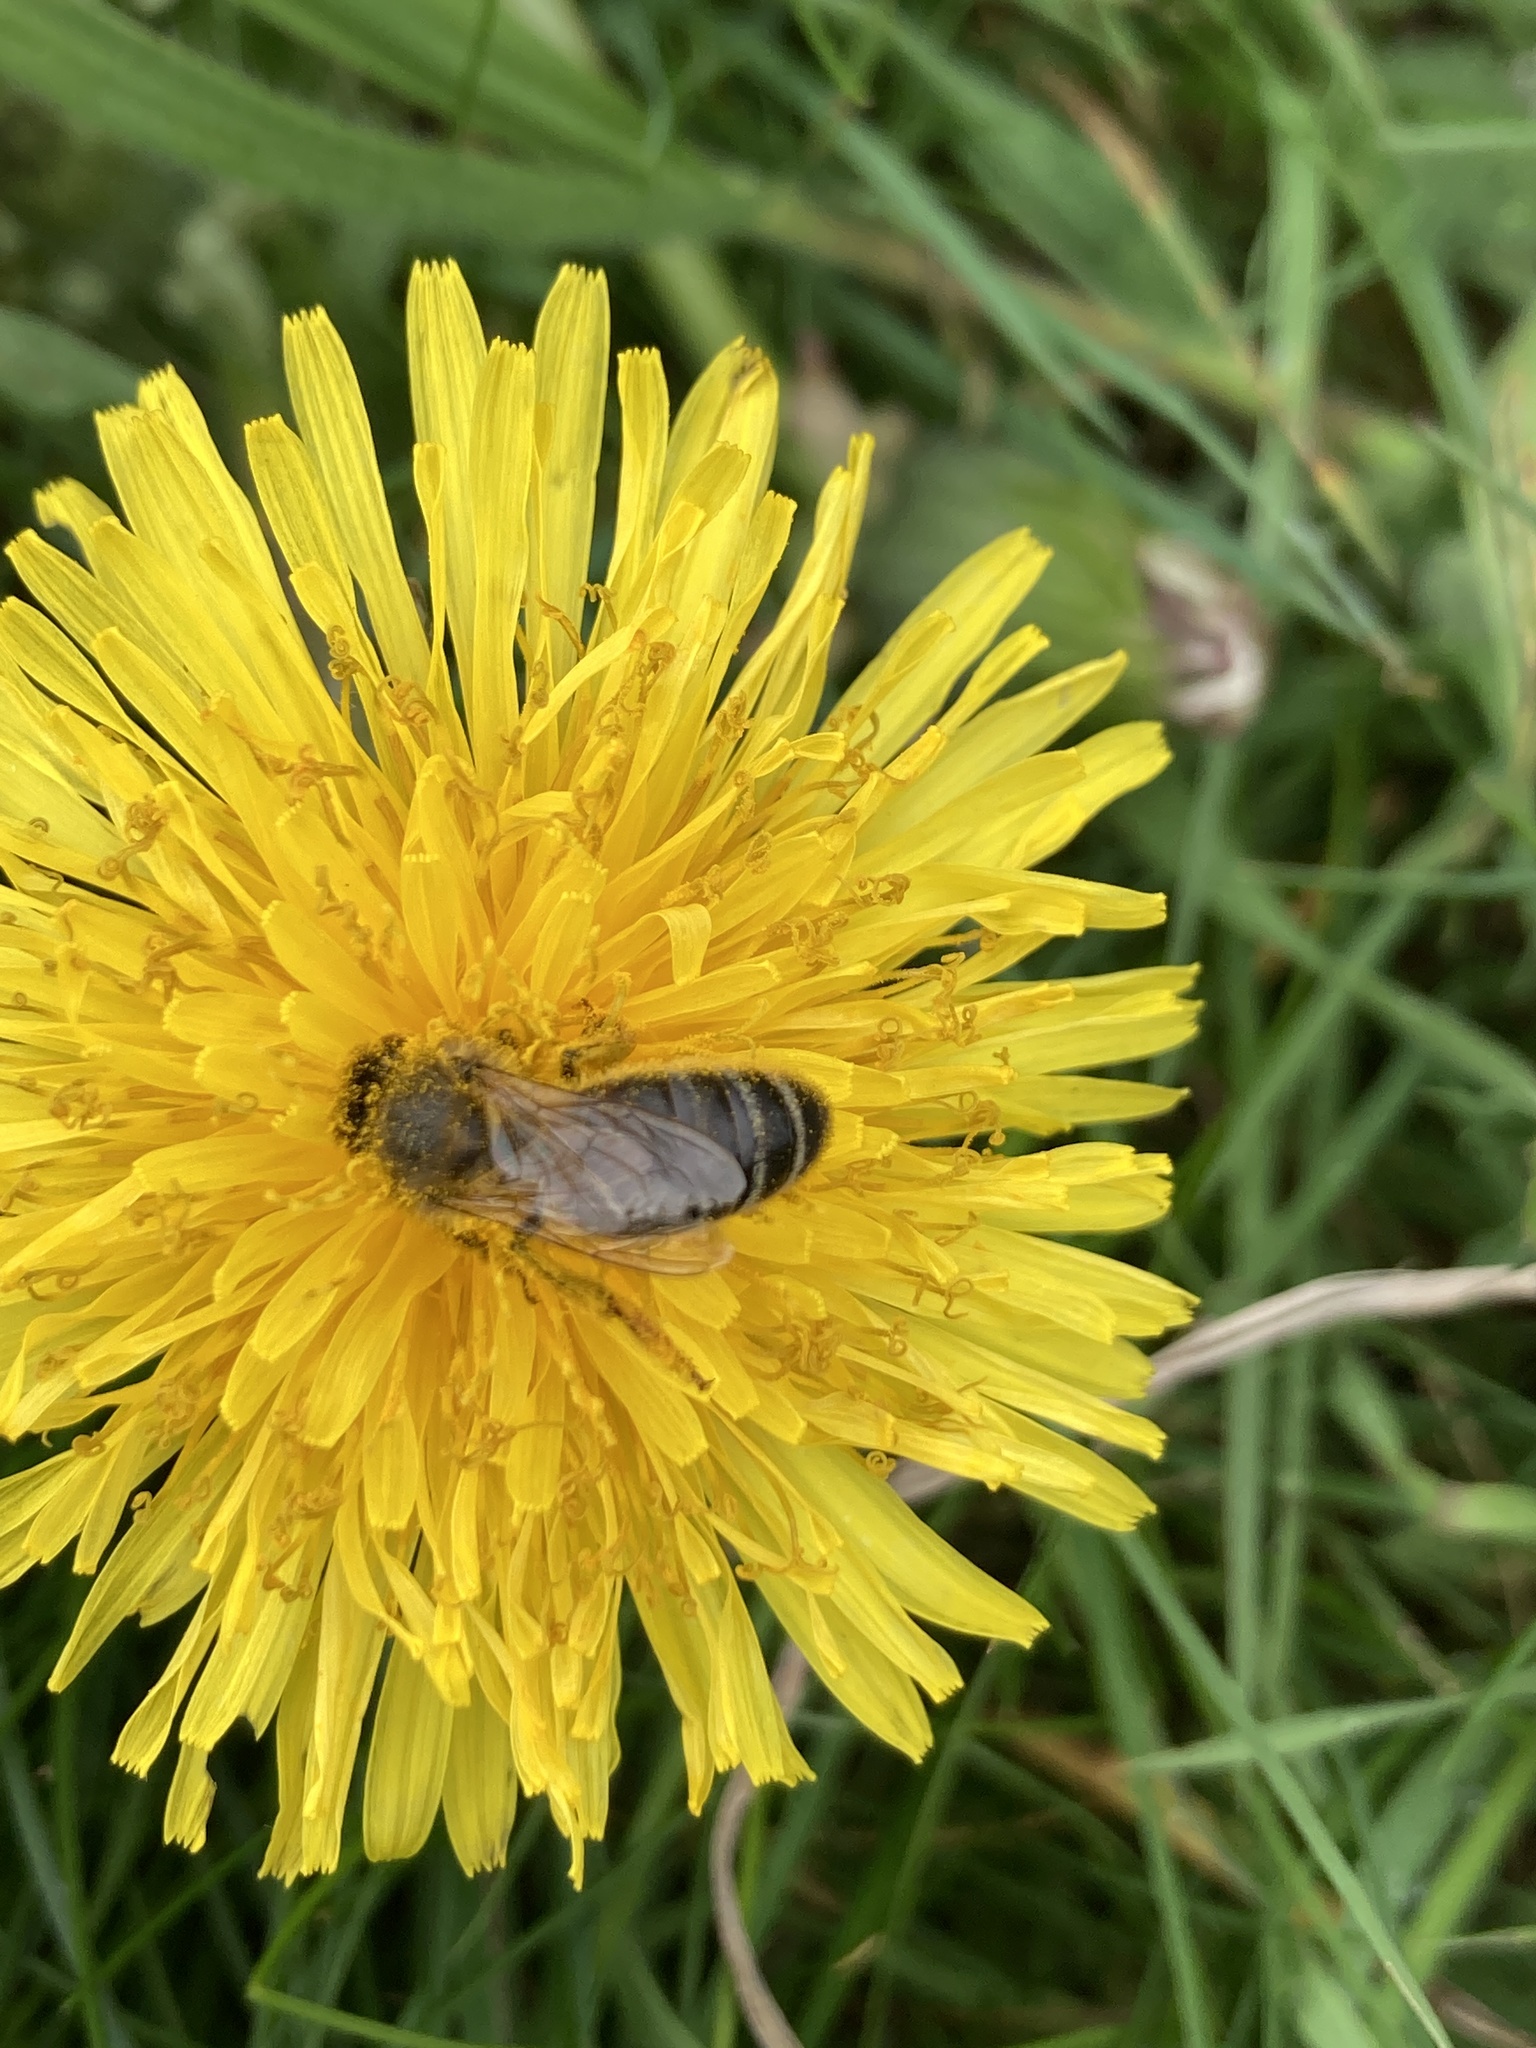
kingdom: Animalia
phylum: Arthropoda
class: Insecta
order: Hymenoptera
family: Apidae
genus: Apis
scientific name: Apis mellifera
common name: Honey bee
